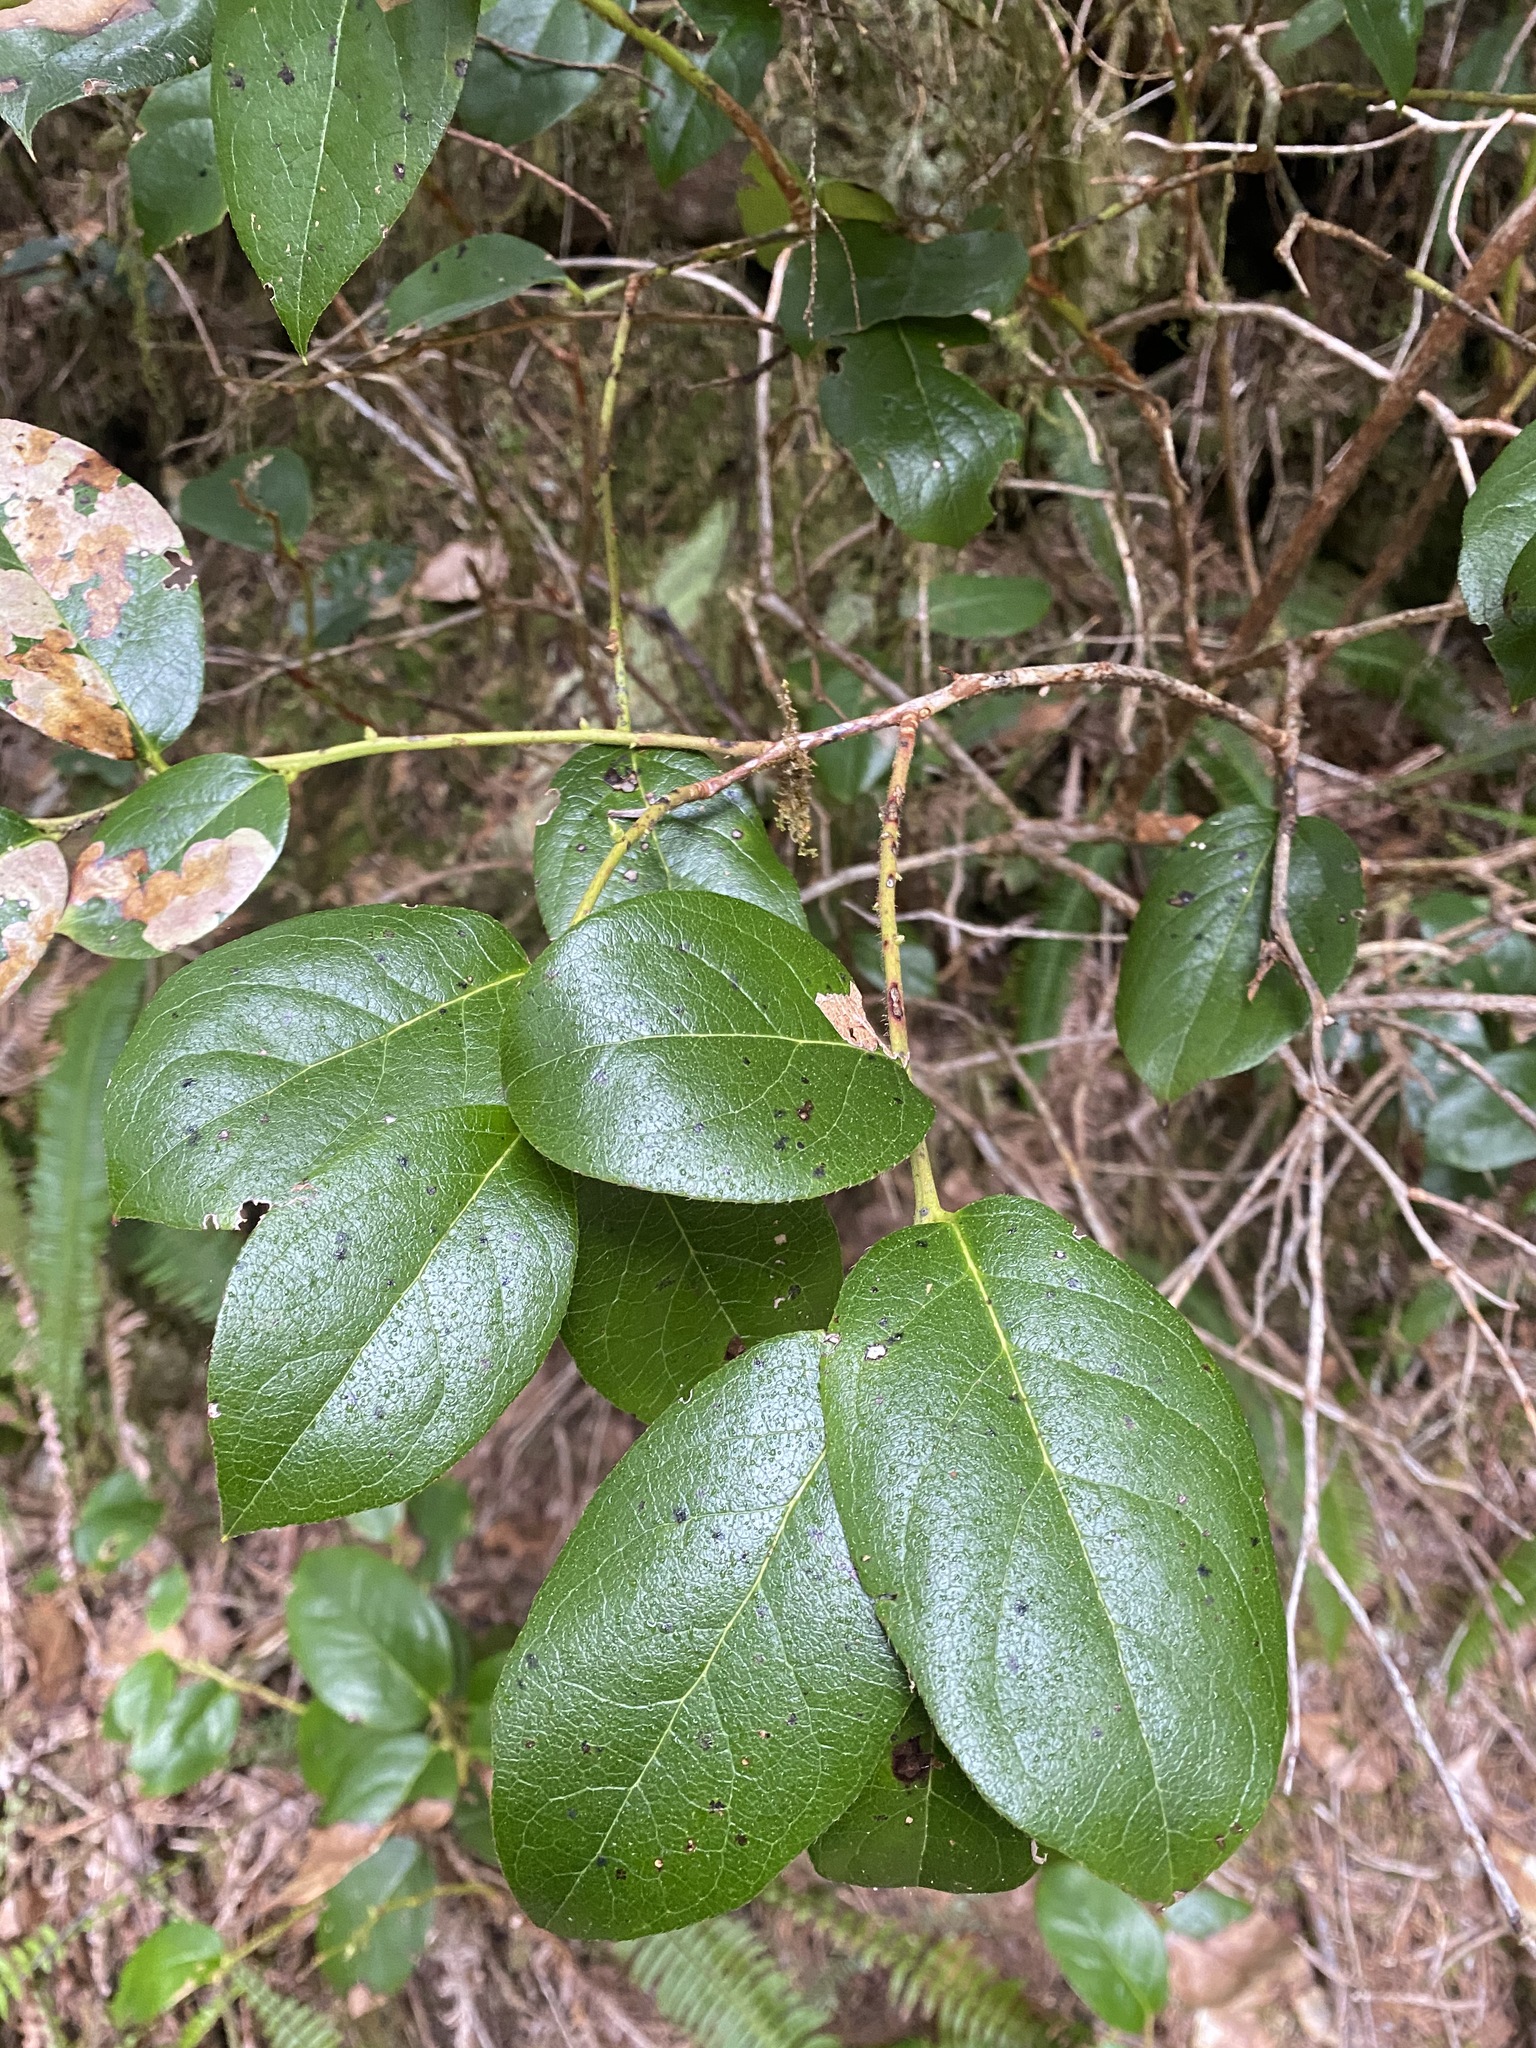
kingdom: Plantae
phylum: Tracheophyta
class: Magnoliopsida
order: Ericales
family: Ericaceae
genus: Gaultheria
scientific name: Gaultheria shallon
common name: Shallon
